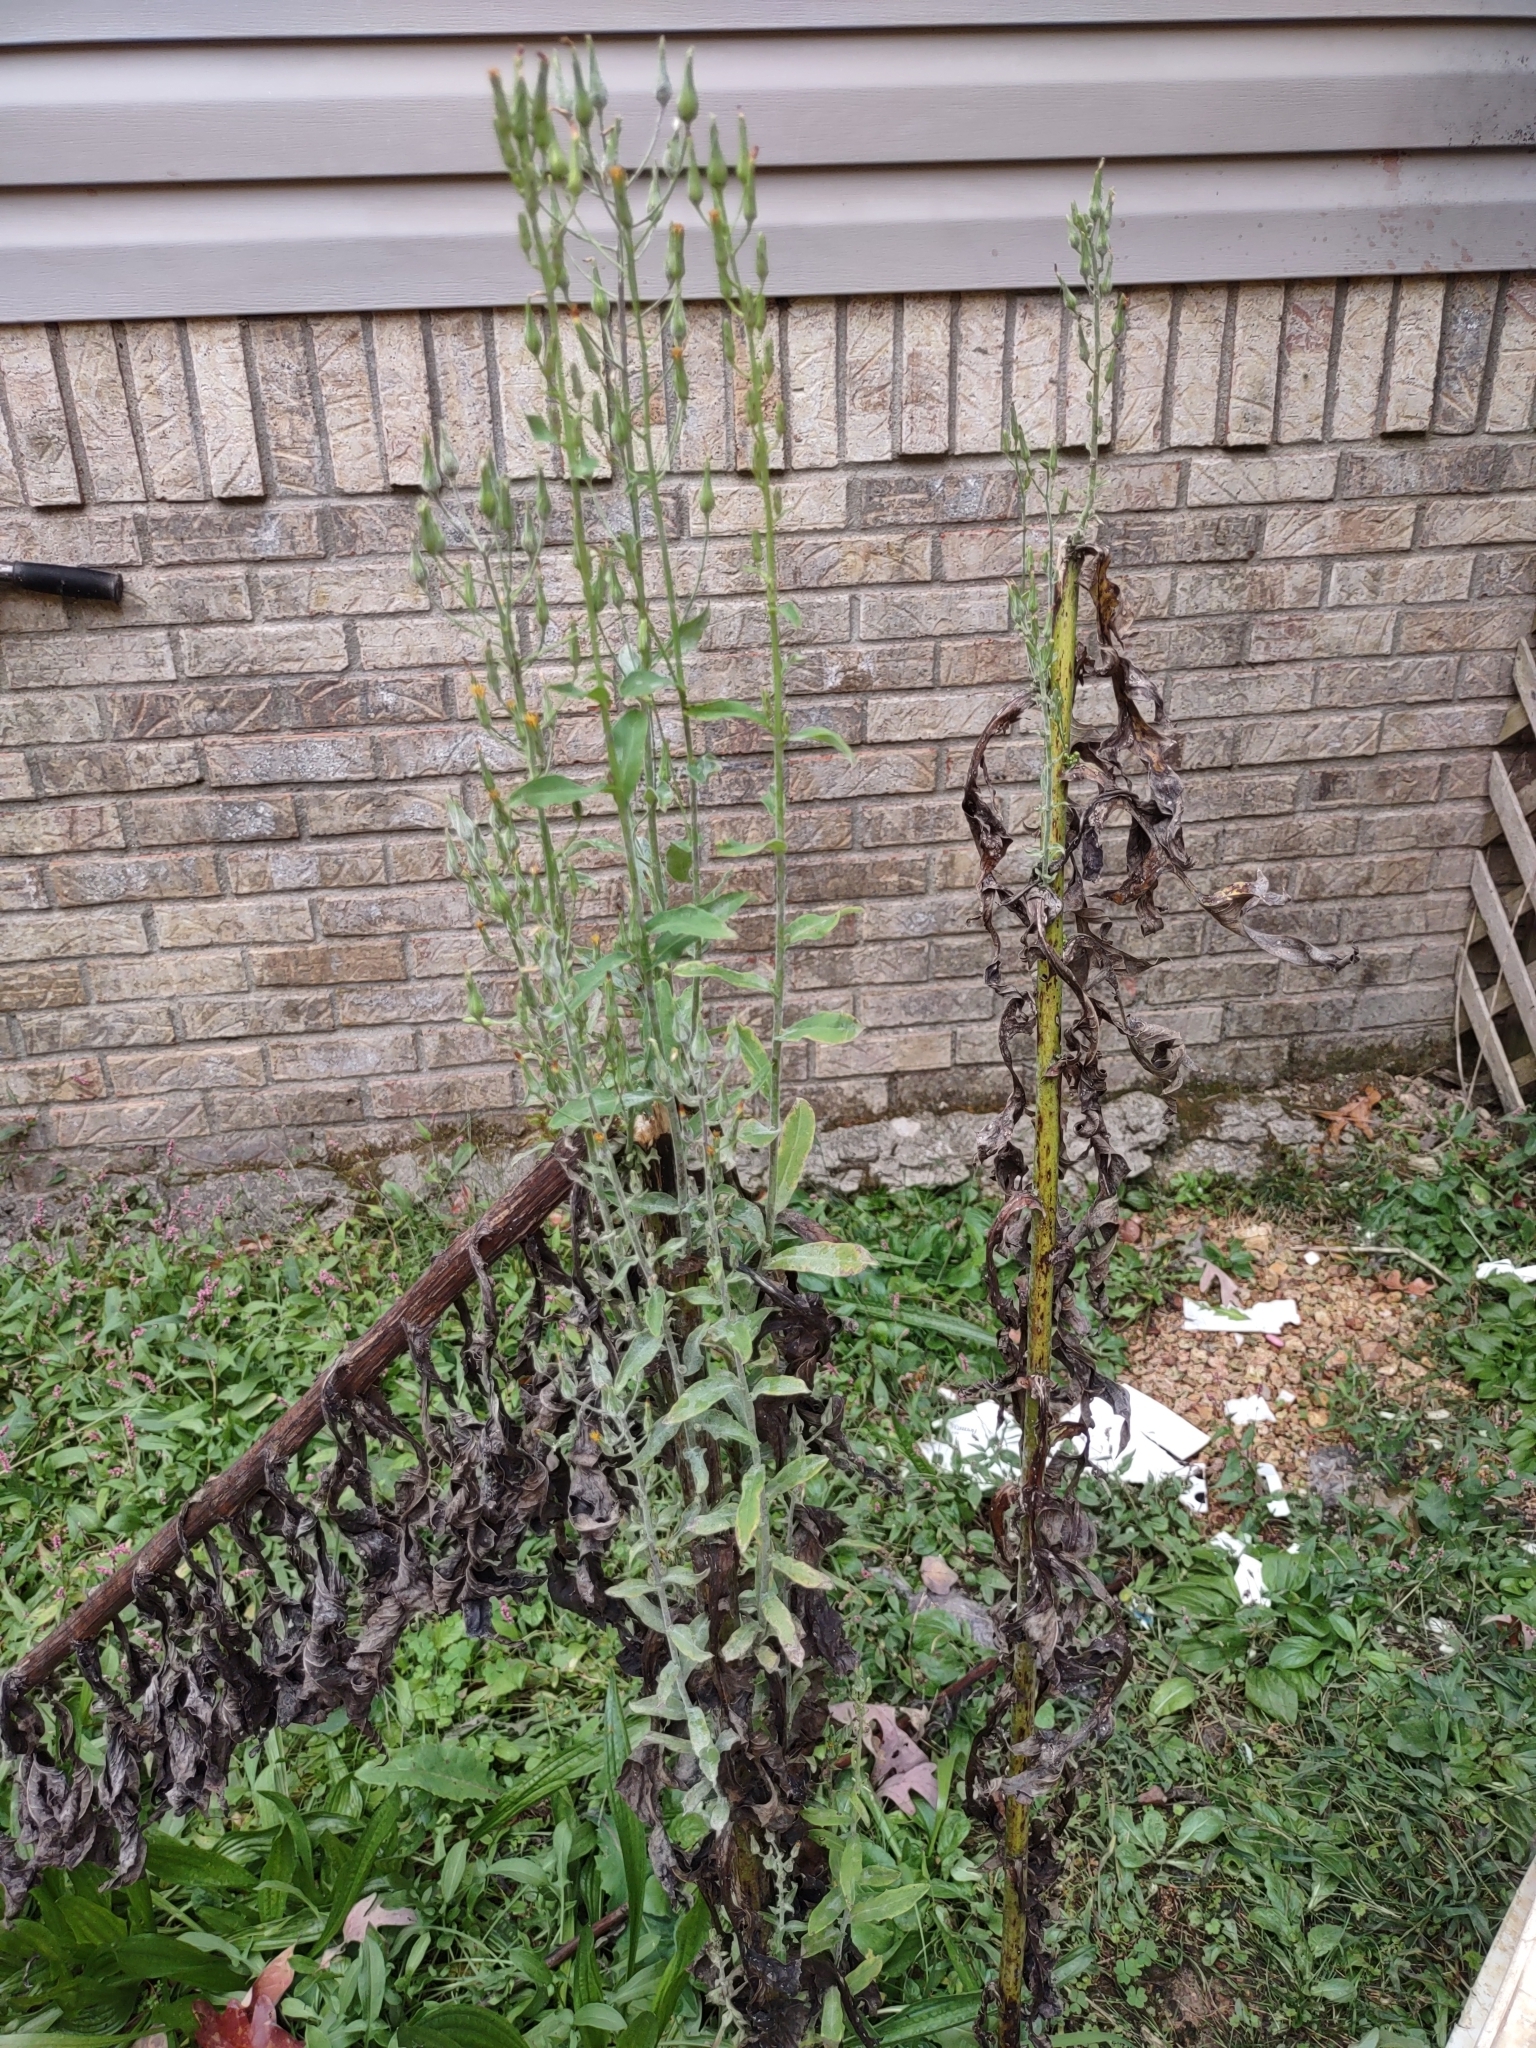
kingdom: Plantae
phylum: Tracheophyta
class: Magnoliopsida
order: Asterales
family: Asteraceae
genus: Lactuca
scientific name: Lactuca canadensis
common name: Canada lettuce
